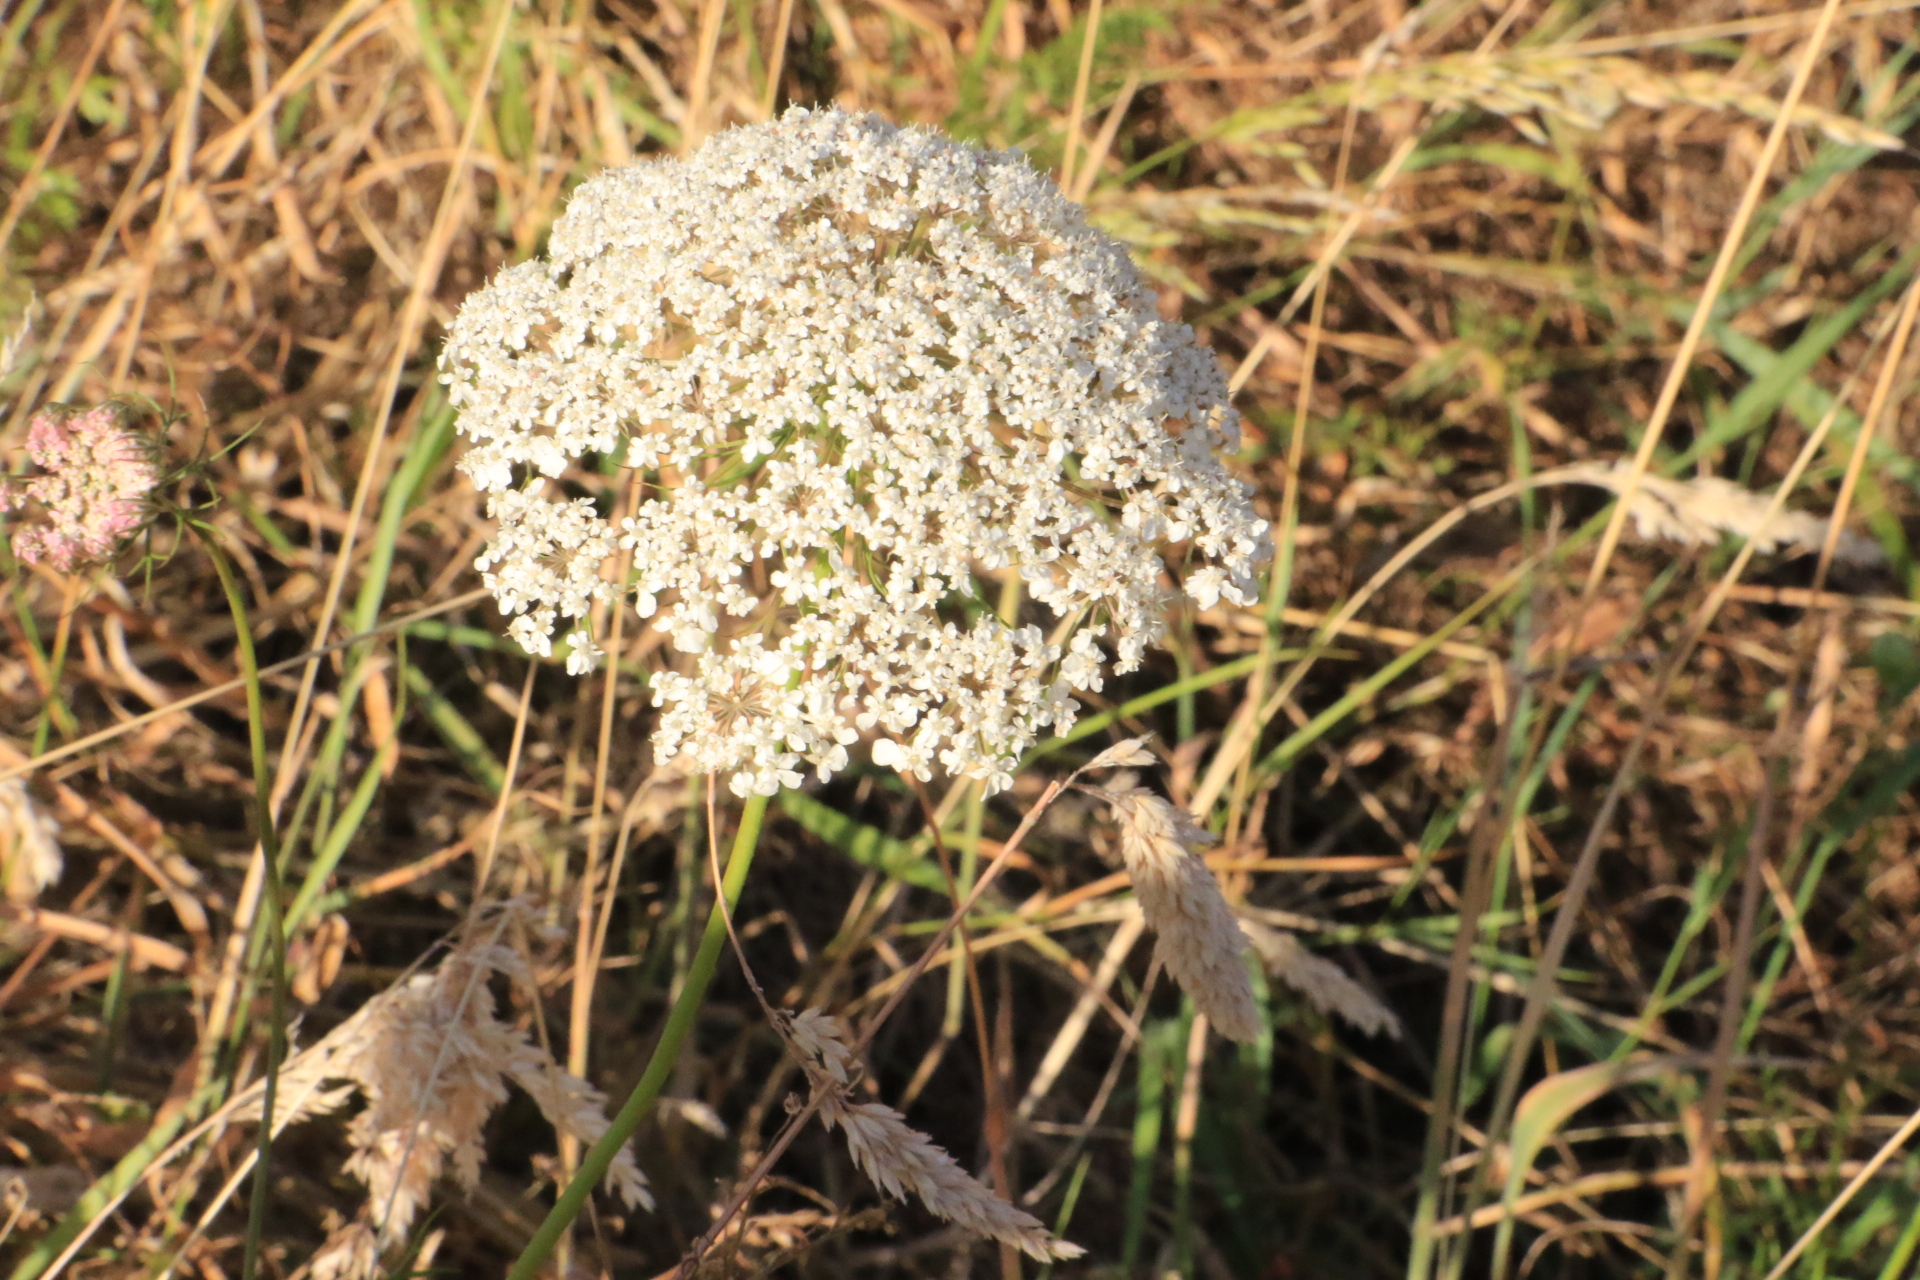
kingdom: Plantae
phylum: Tracheophyta
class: Magnoliopsida
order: Apiales
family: Apiaceae
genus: Daucus
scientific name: Daucus carota
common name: Wild carrot
